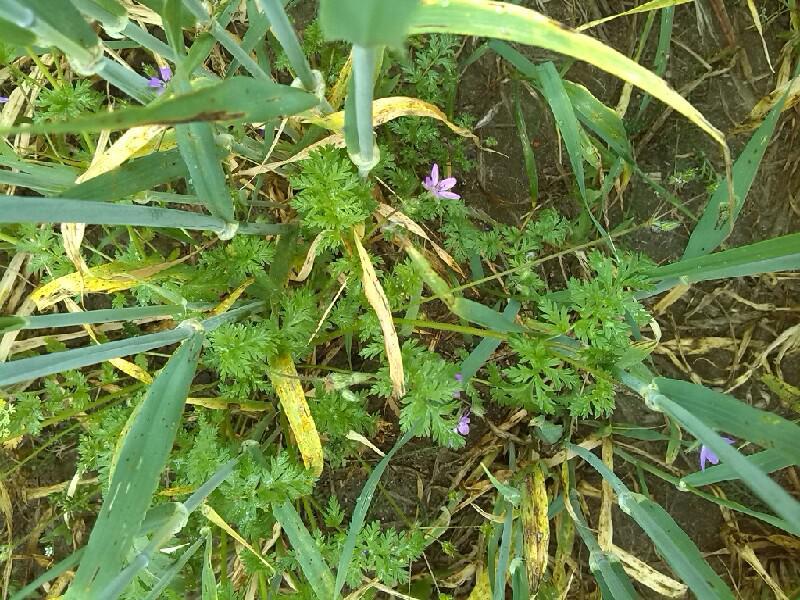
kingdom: Plantae
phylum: Tracheophyta
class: Magnoliopsida
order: Geraniales
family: Geraniaceae
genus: Erodium
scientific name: Erodium cicutarium
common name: Common stork's-bill
